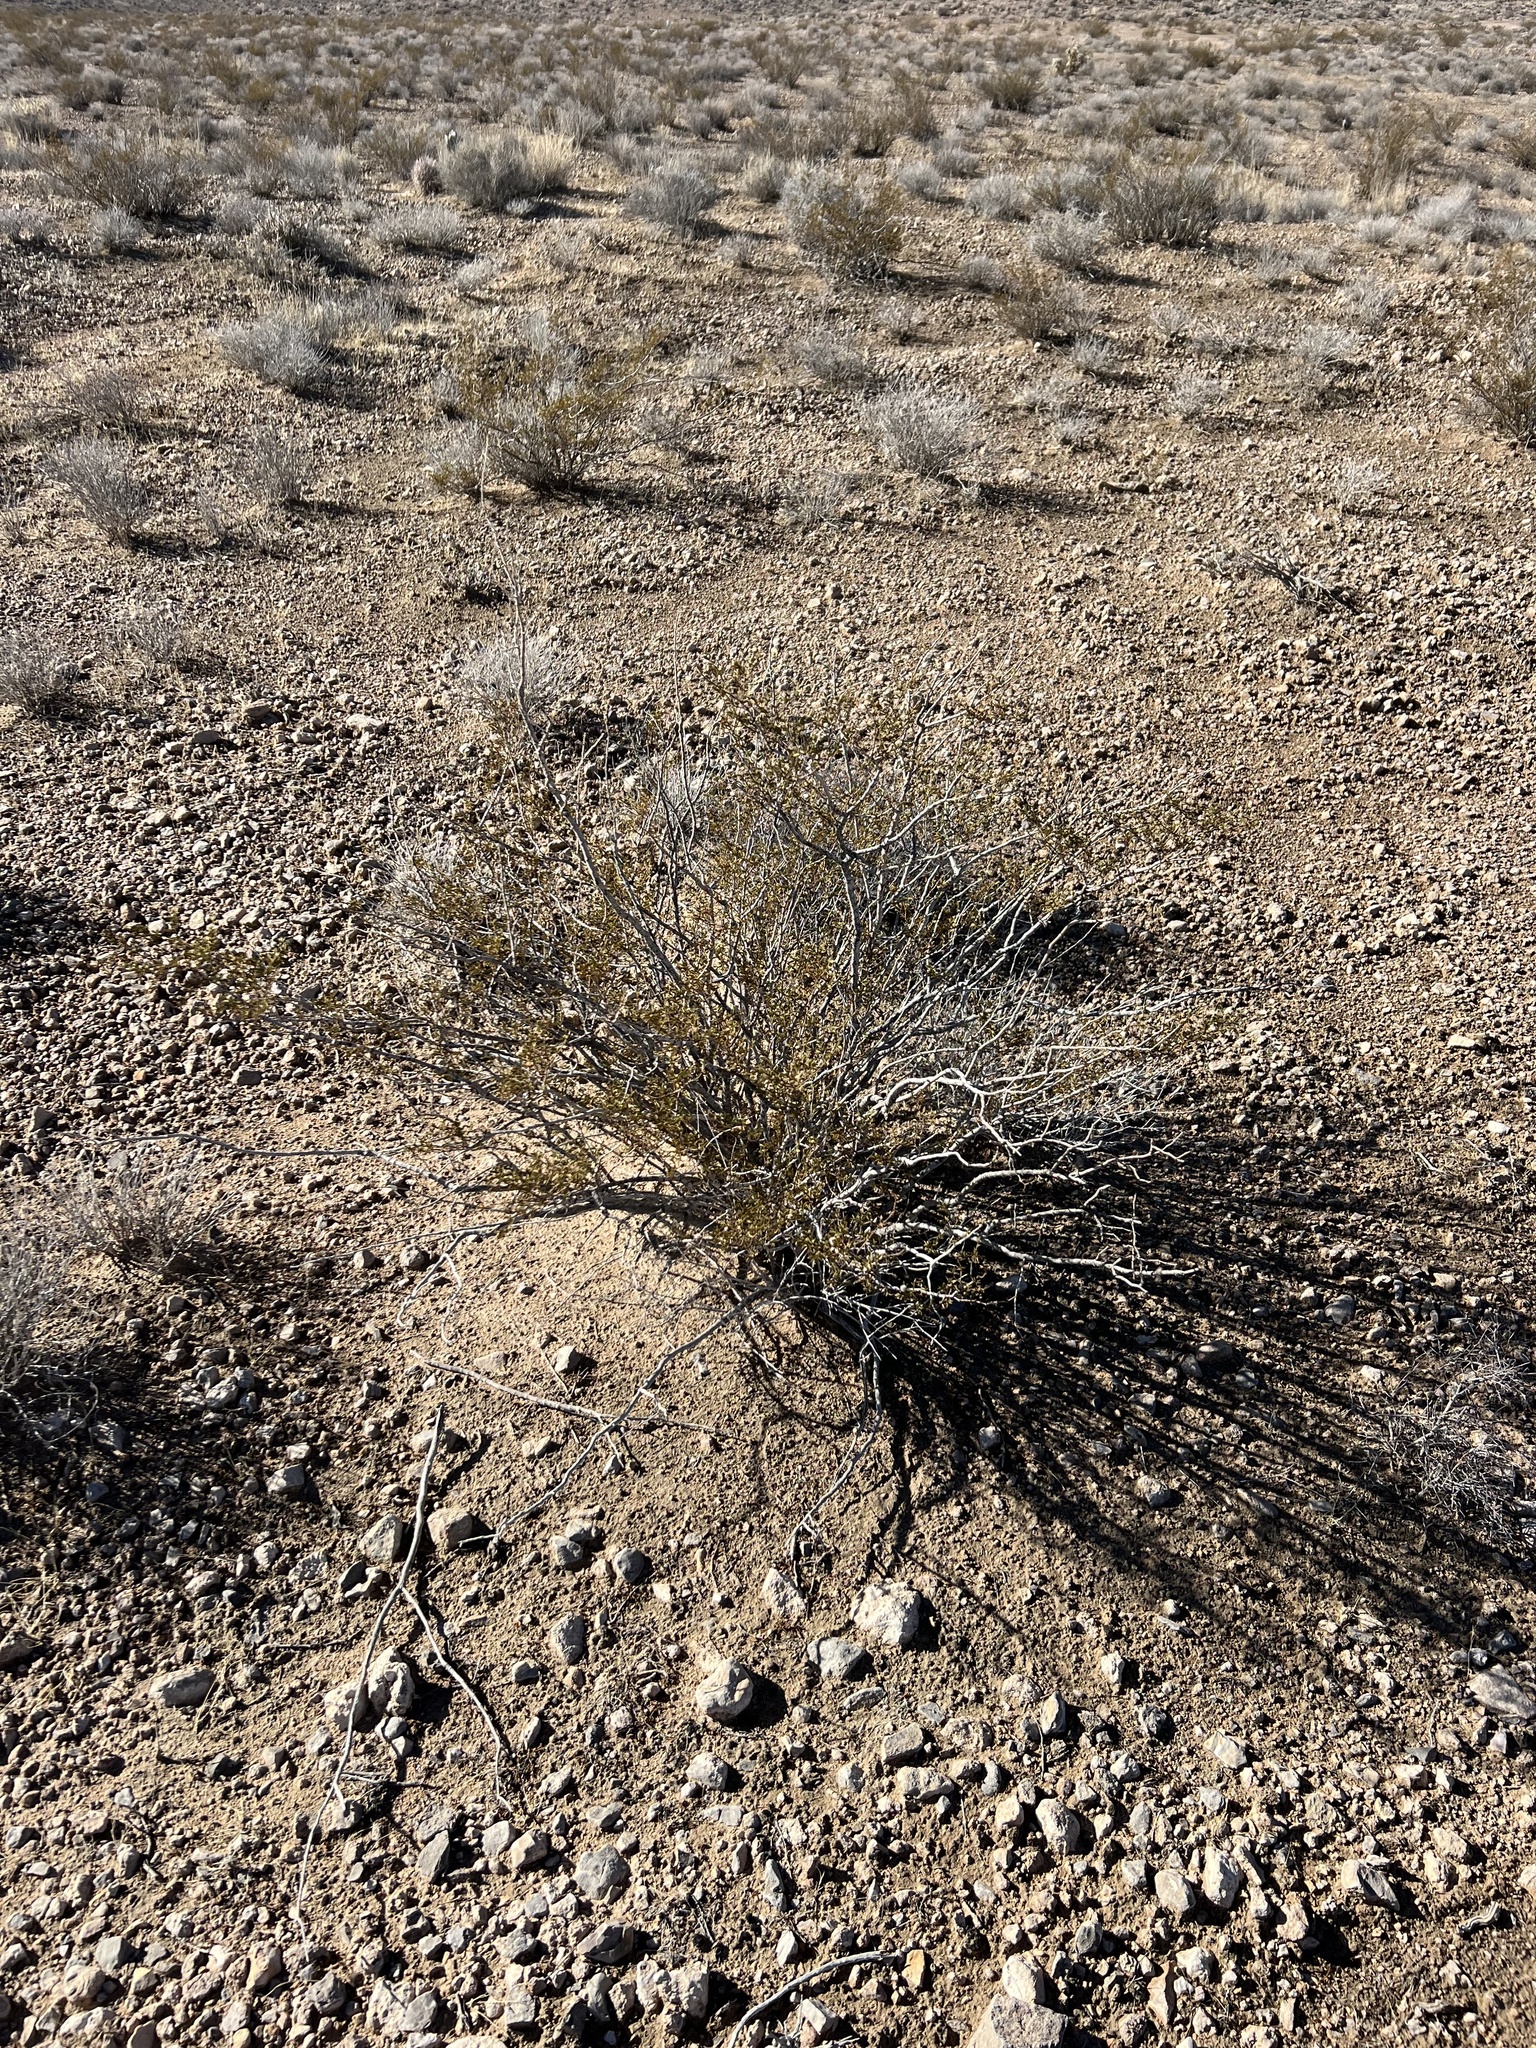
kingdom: Plantae
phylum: Tracheophyta
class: Magnoliopsida
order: Zygophyllales
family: Zygophyllaceae
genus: Larrea
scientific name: Larrea tridentata
